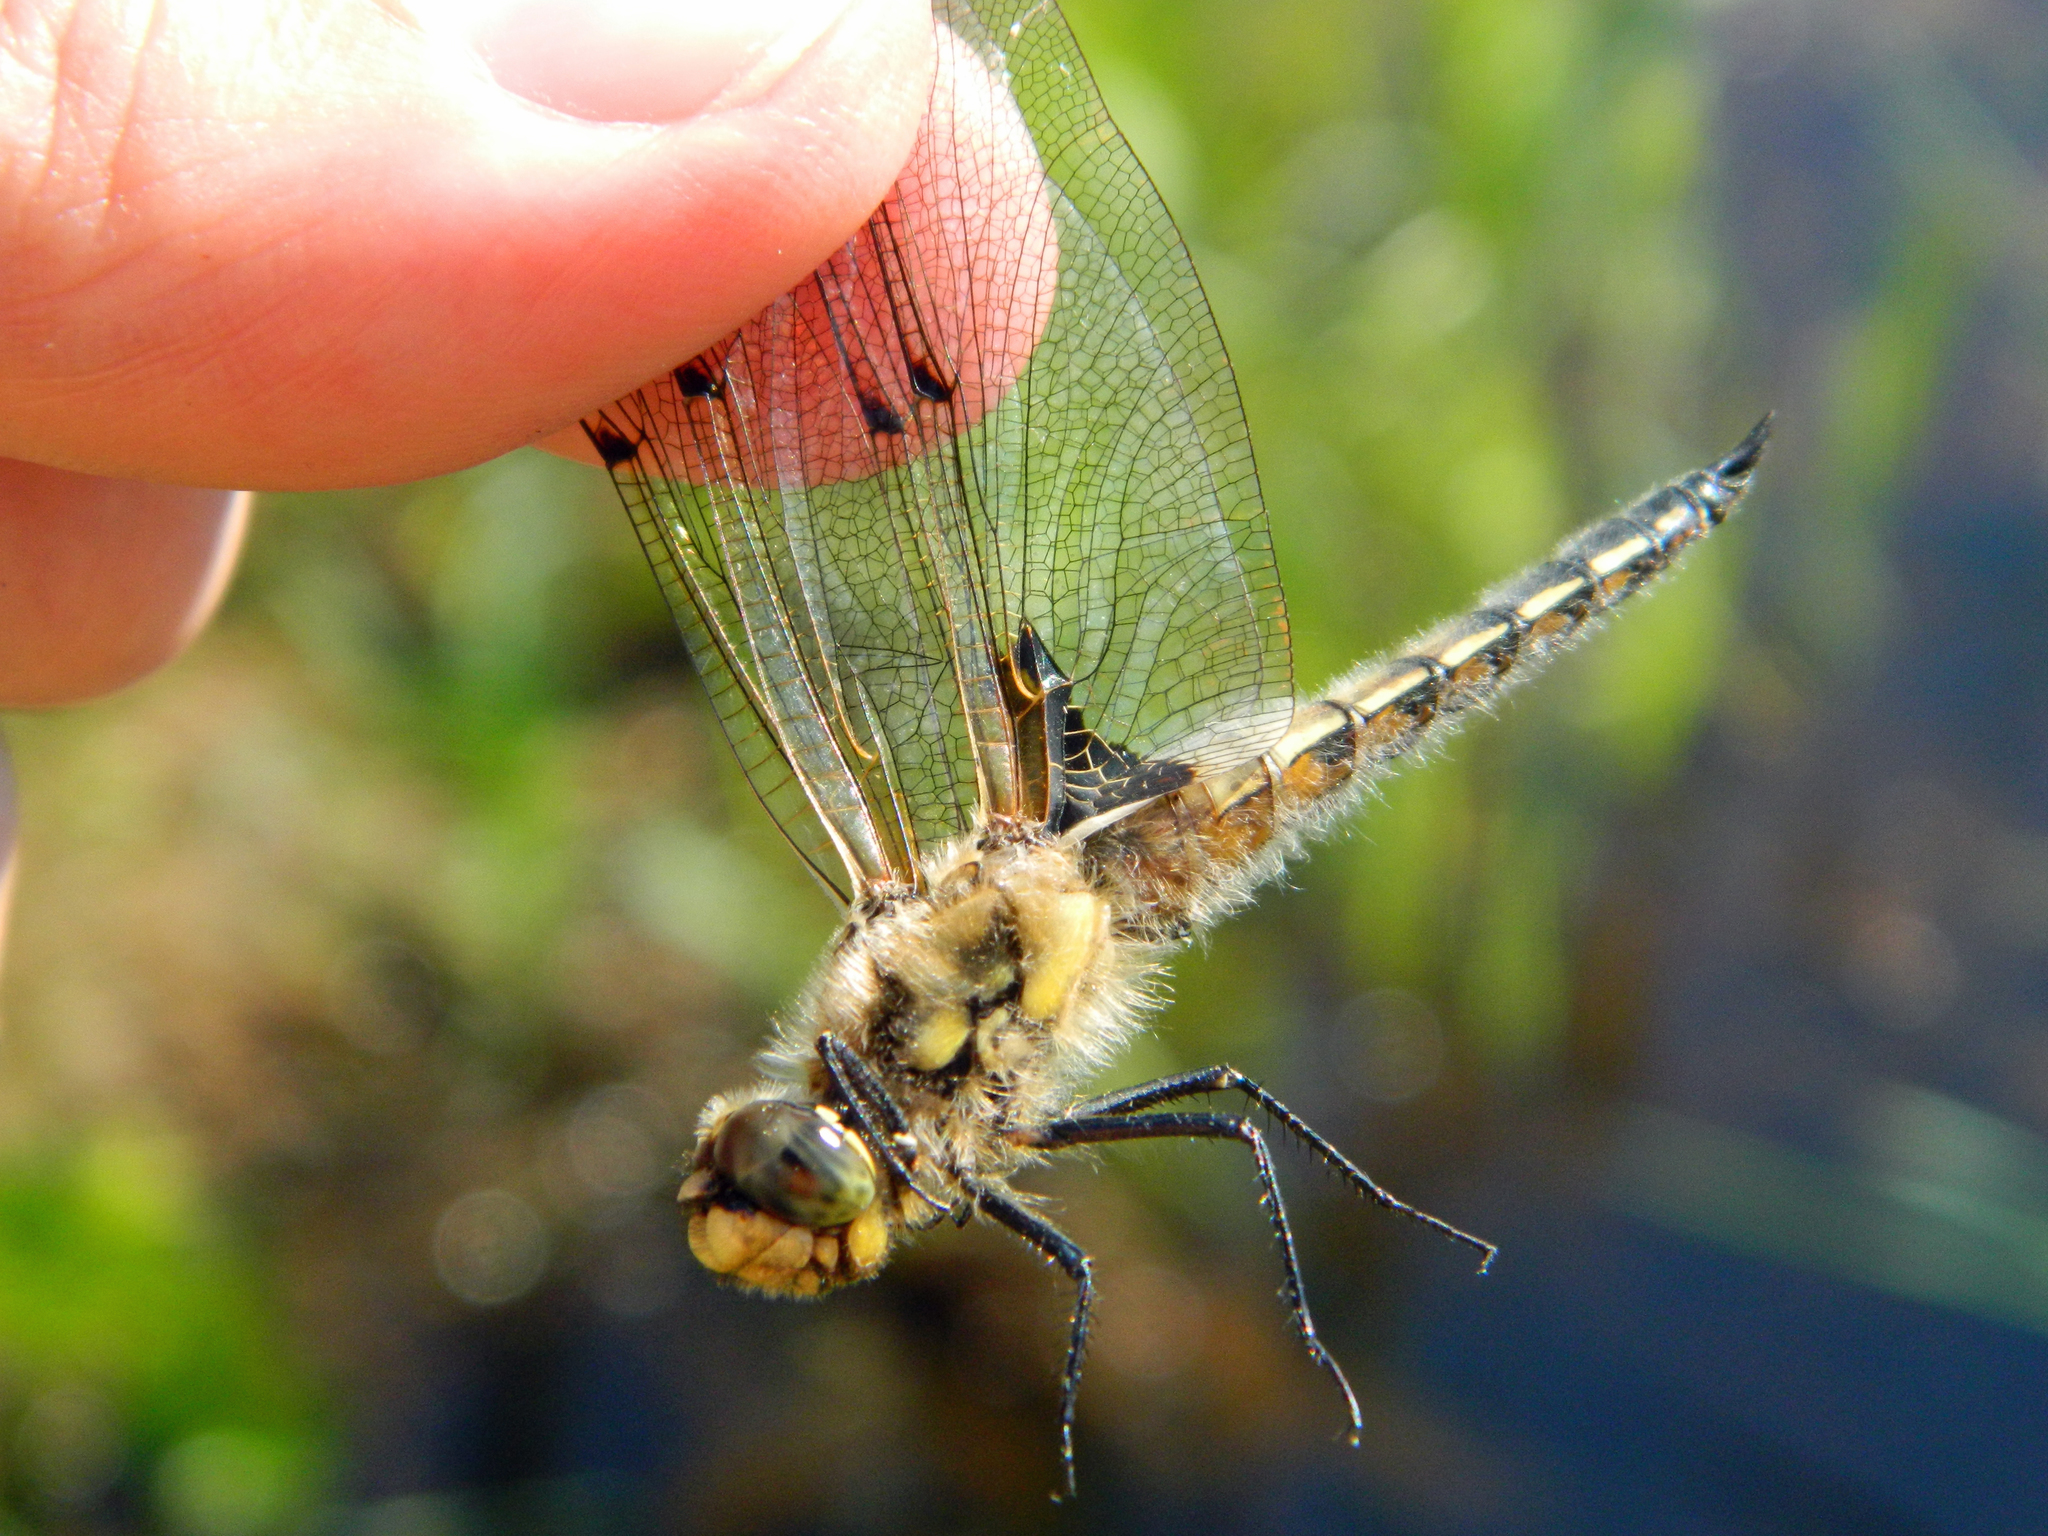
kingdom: Animalia
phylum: Arthropoda
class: Insecta
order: Odonata
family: Libellulidae
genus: Libellula
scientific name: Libellula quadrimaculata
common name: Four-spotted chaser
